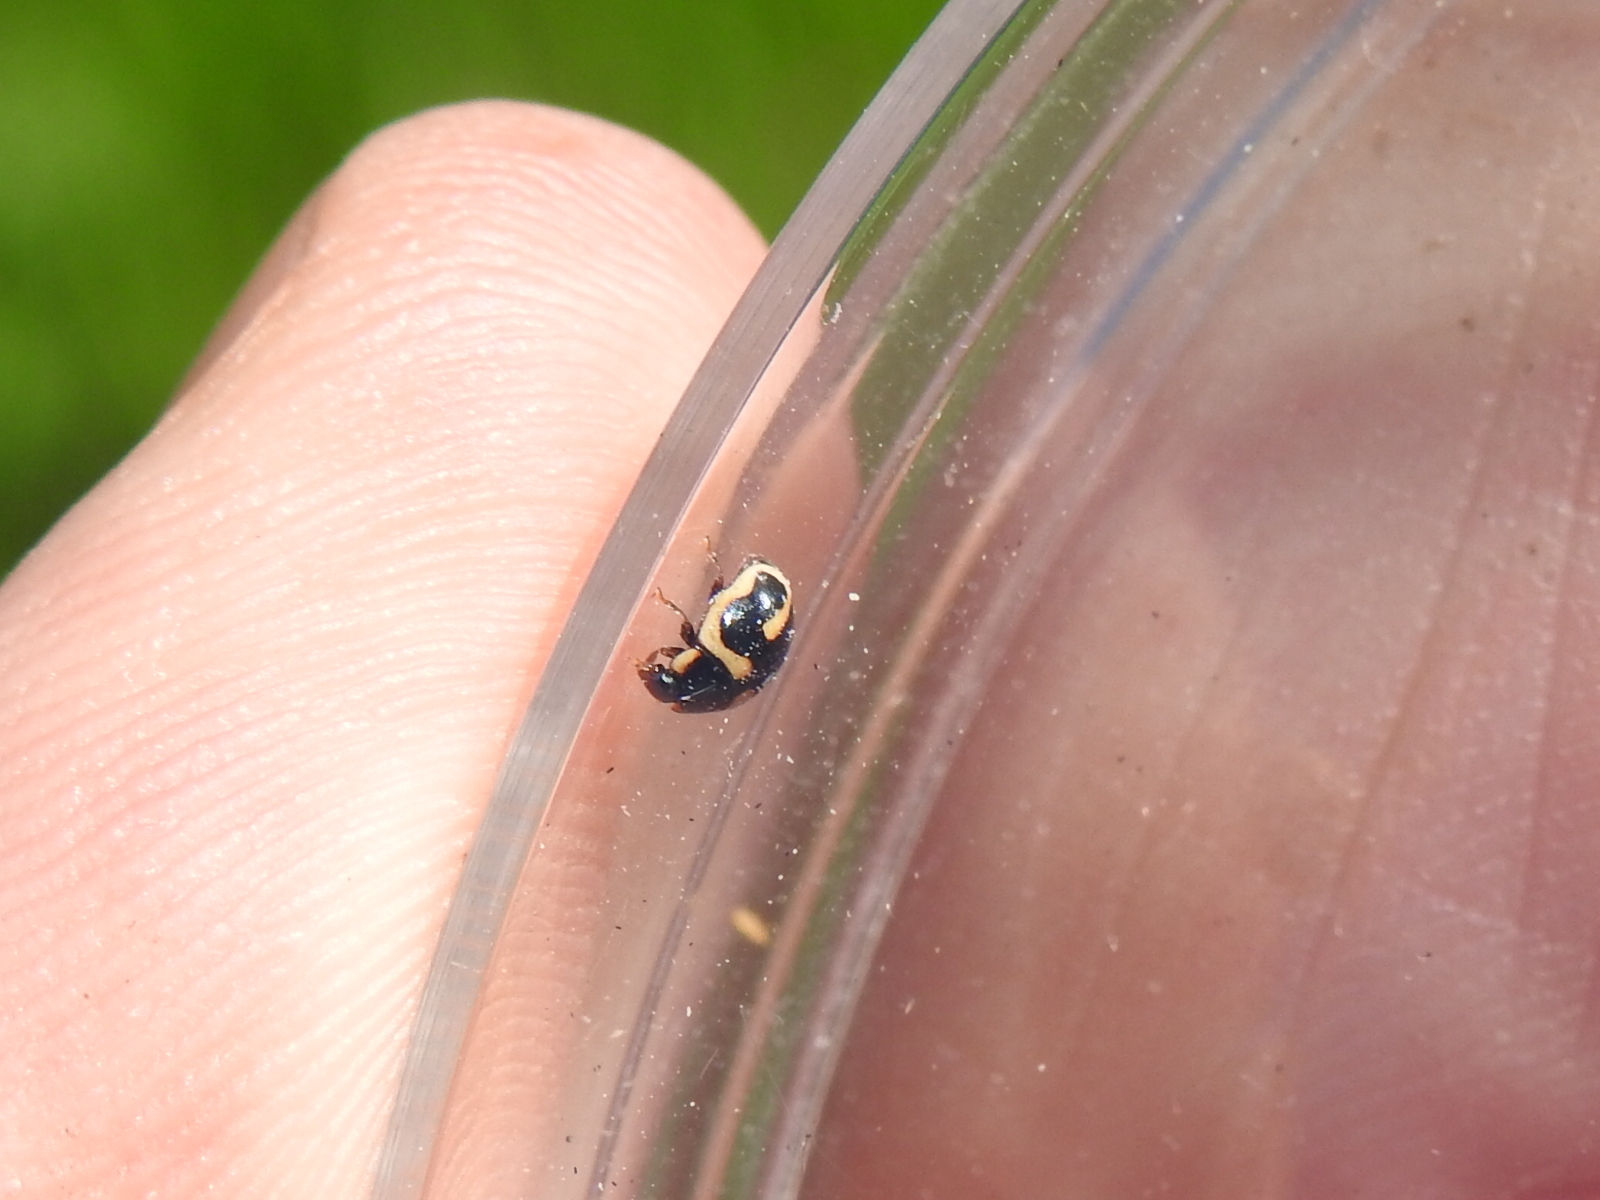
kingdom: Animalia
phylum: Arthropoda
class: Insecta
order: Coleoptera
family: Coccinellidae
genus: Hyperaspis
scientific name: Hyperaspis trifurcata
